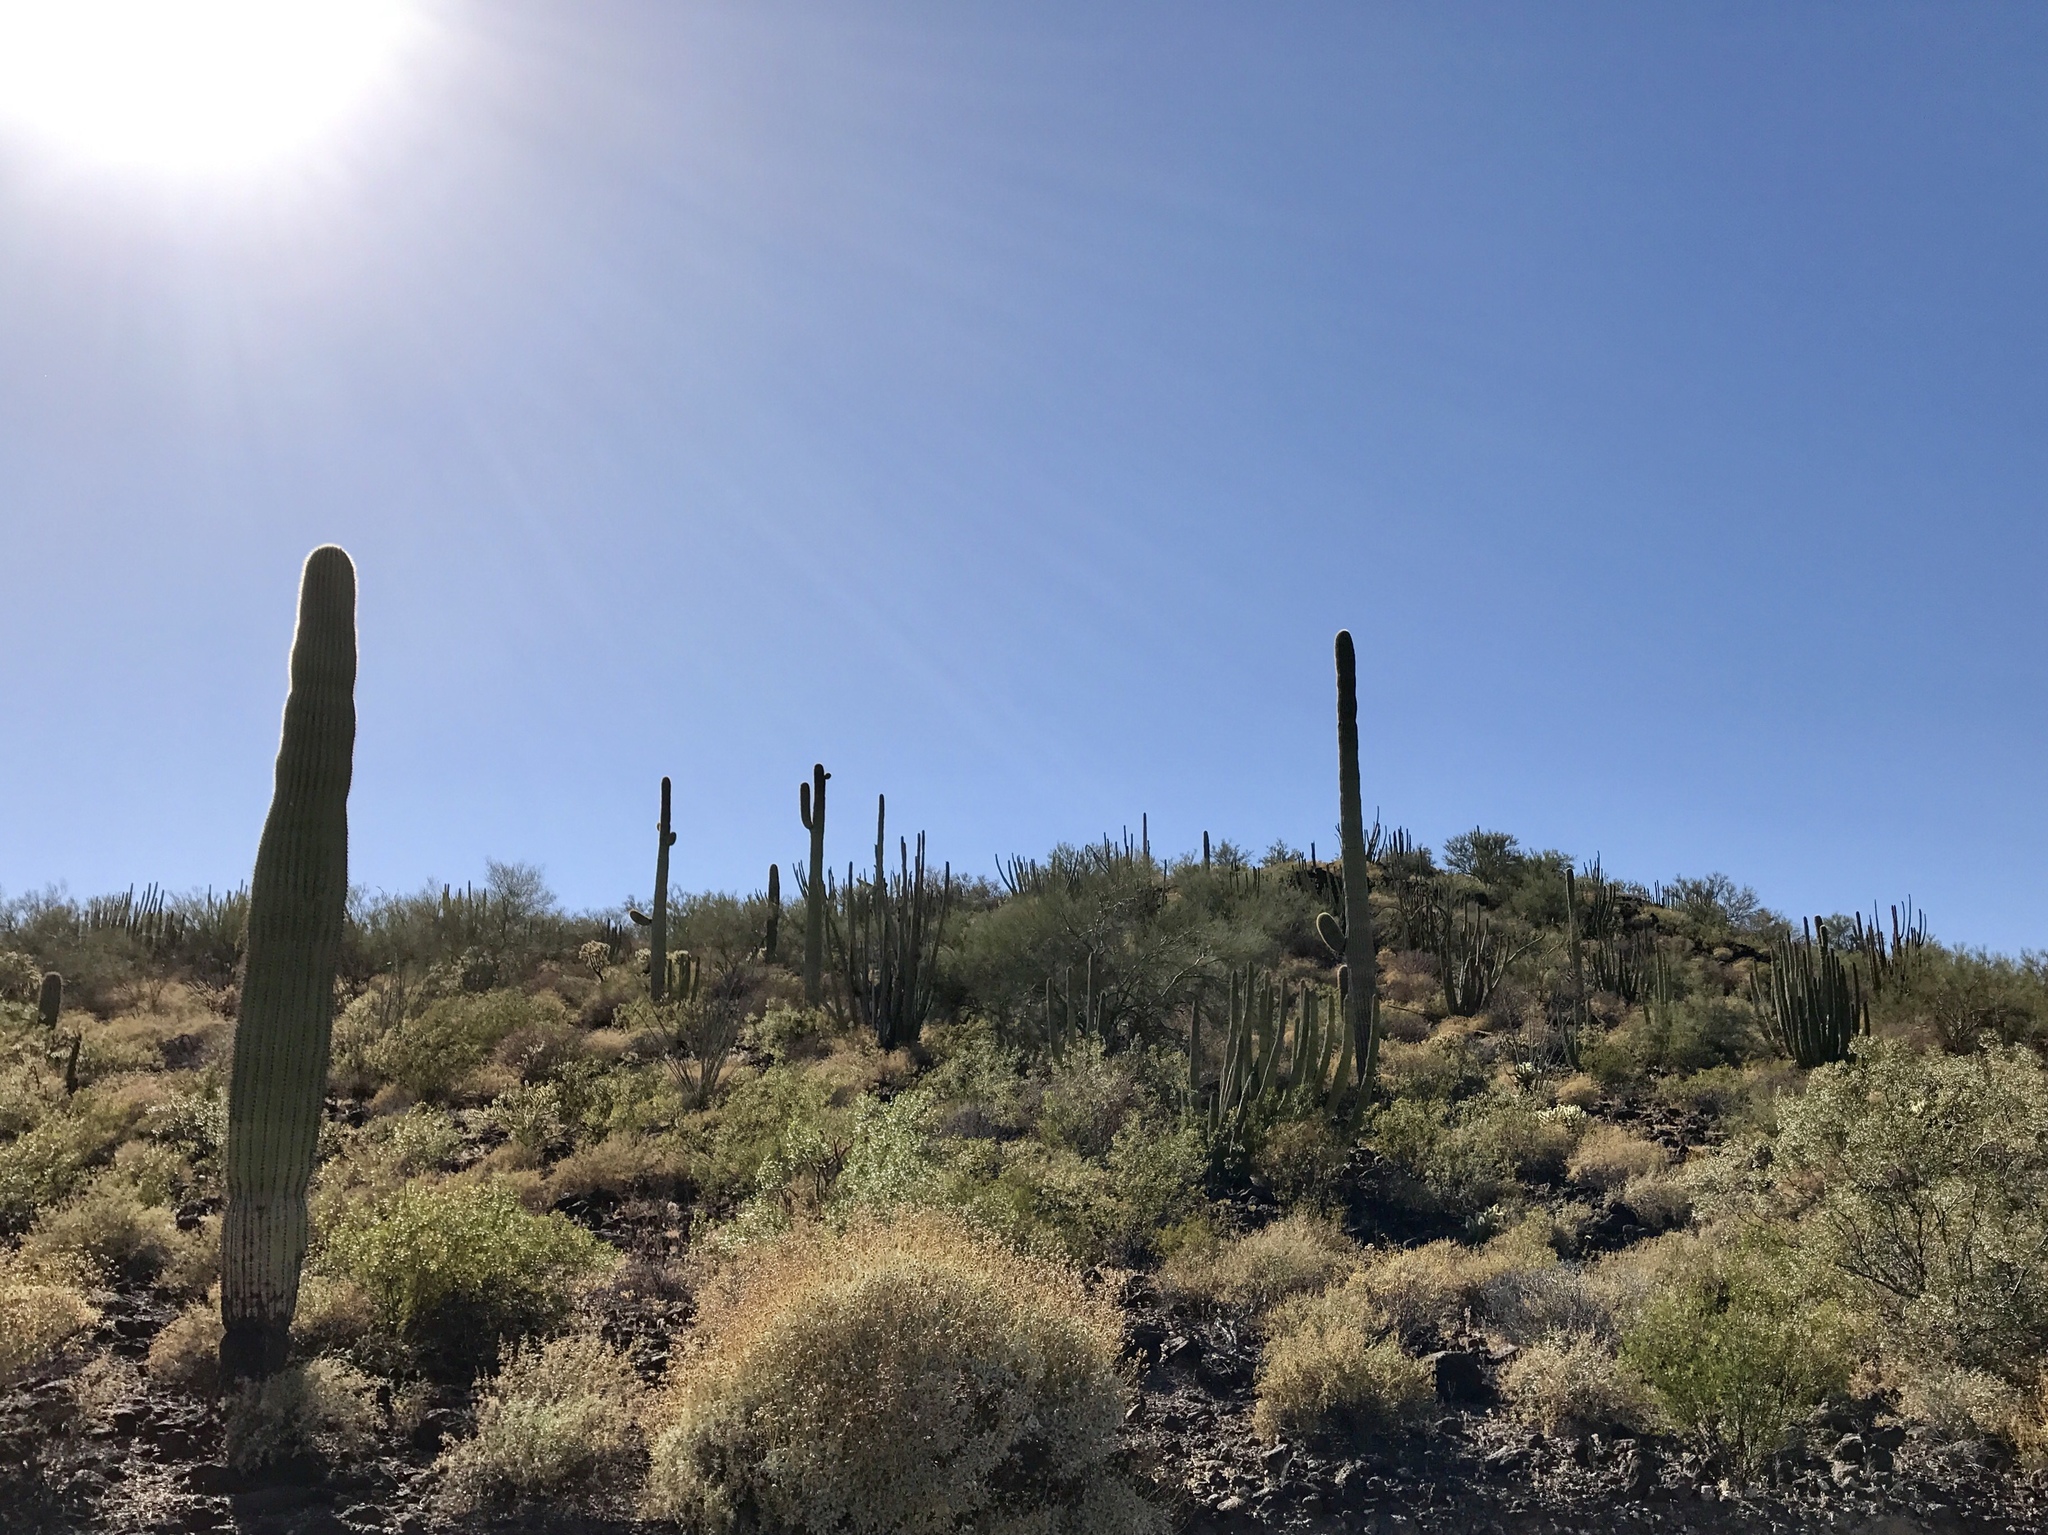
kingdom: Plantae
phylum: Tracheophyta
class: Magnoliopsida
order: Caryophyllales
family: Cactaceae
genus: Carnegiea
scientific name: Carnegiea gigantea
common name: Saguaro
